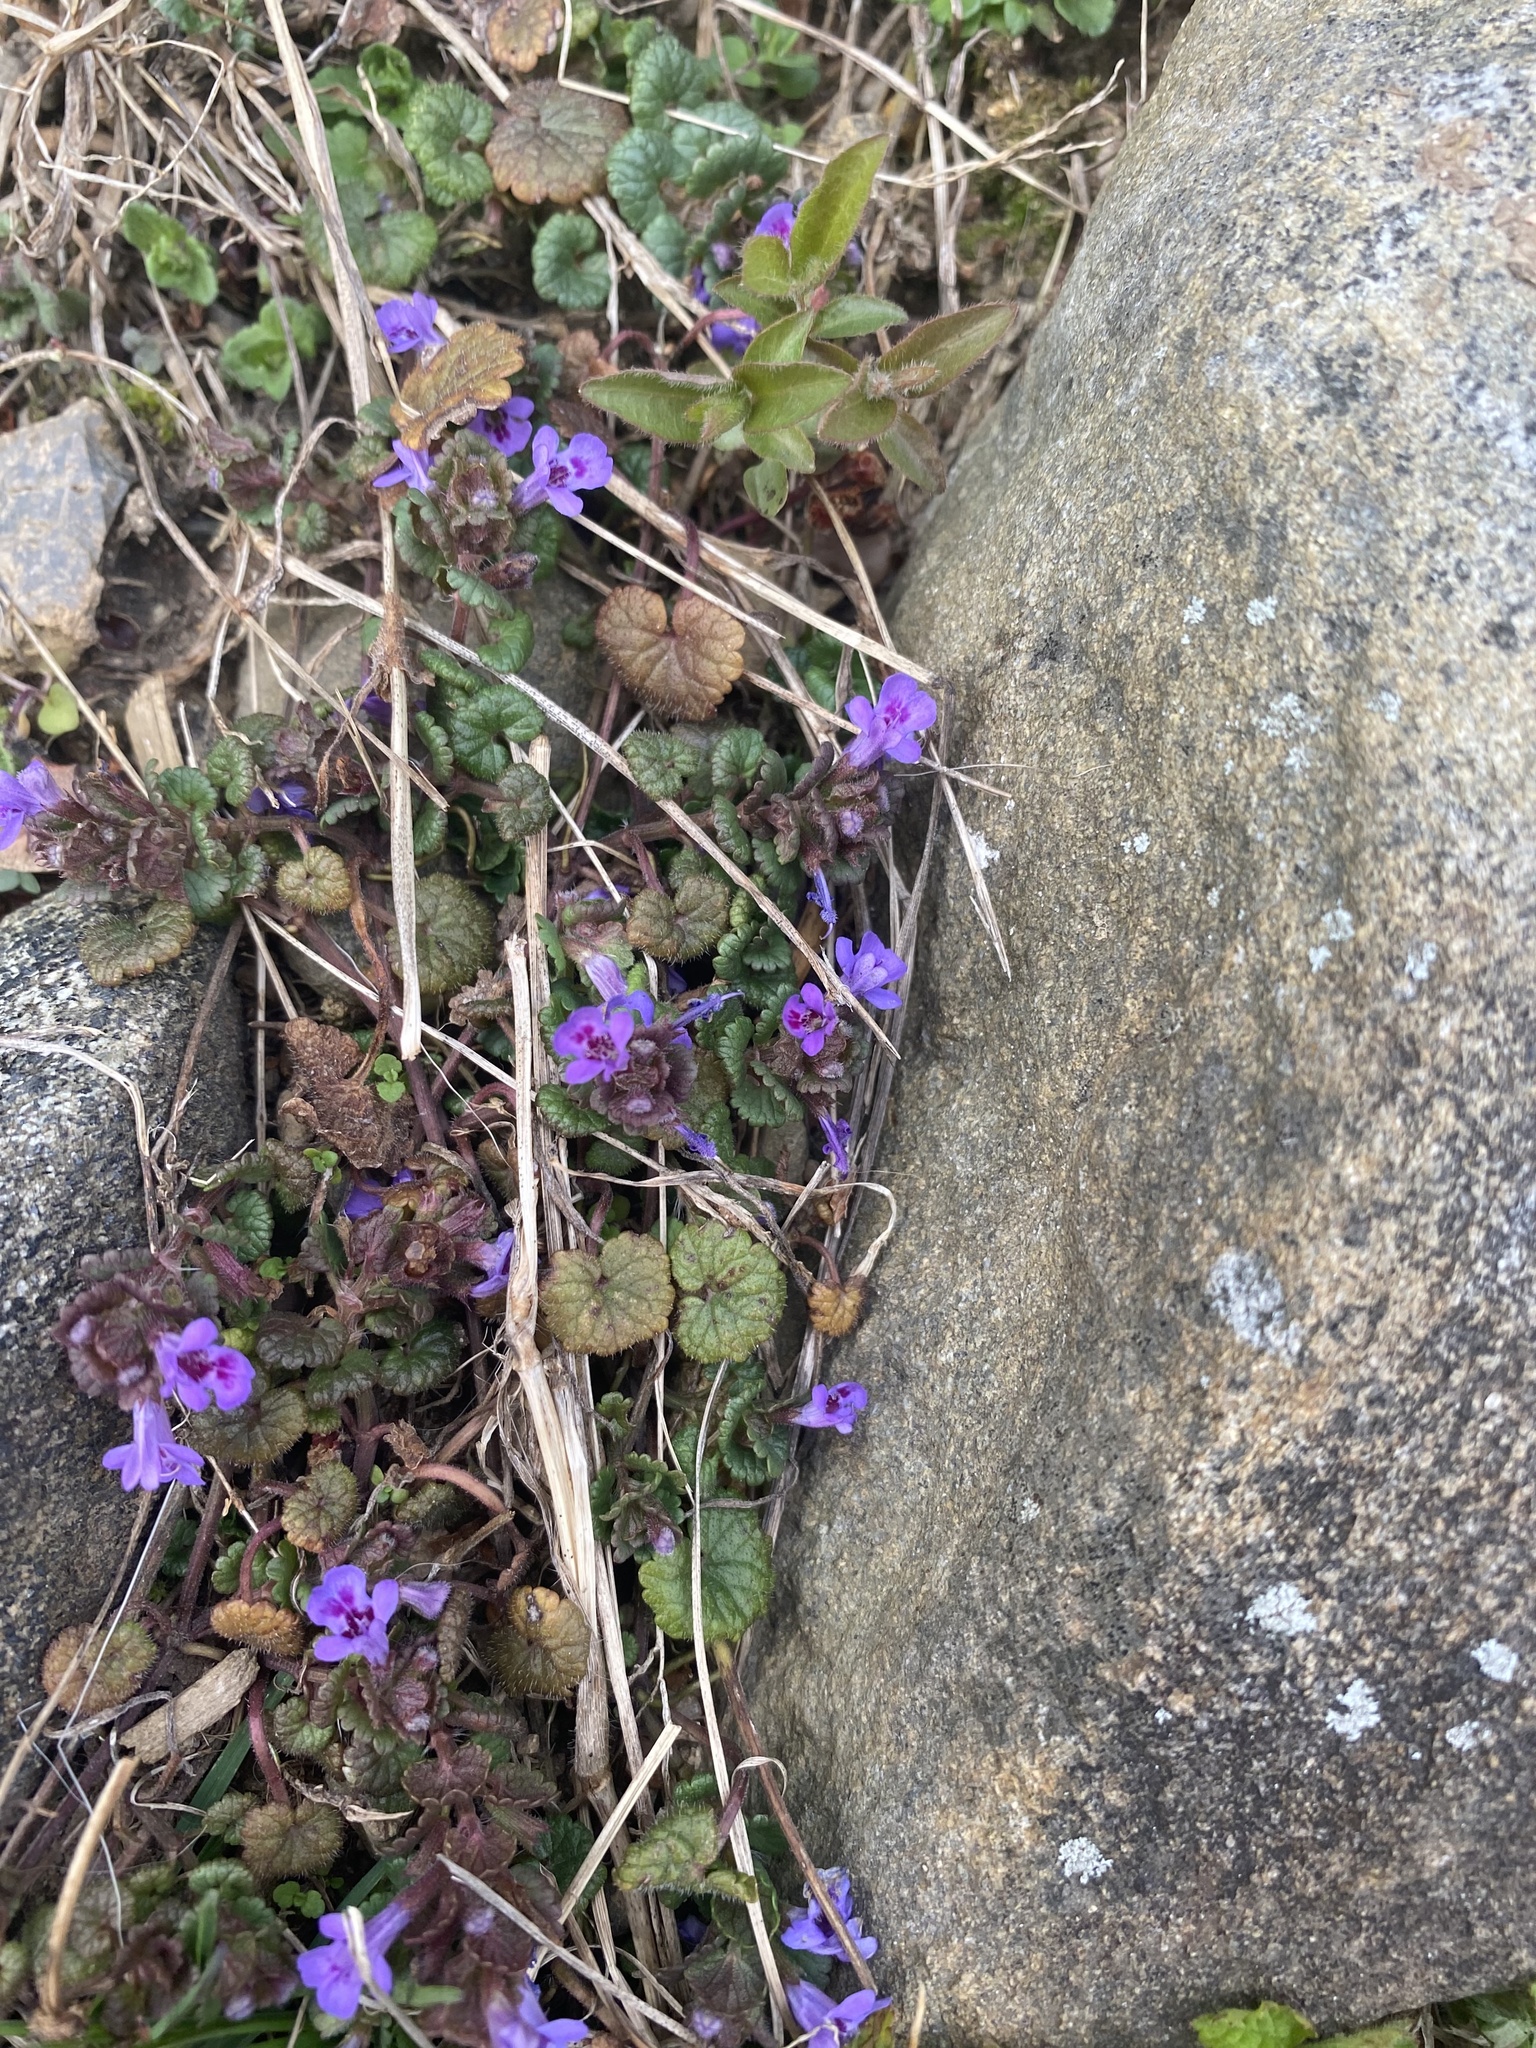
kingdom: Plantae
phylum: Tracheophyta
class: Magnoliopsida
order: Lamiales
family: Lamiaceae
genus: Glechoma
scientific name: Glechoma hederacea
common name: Ground ivy
